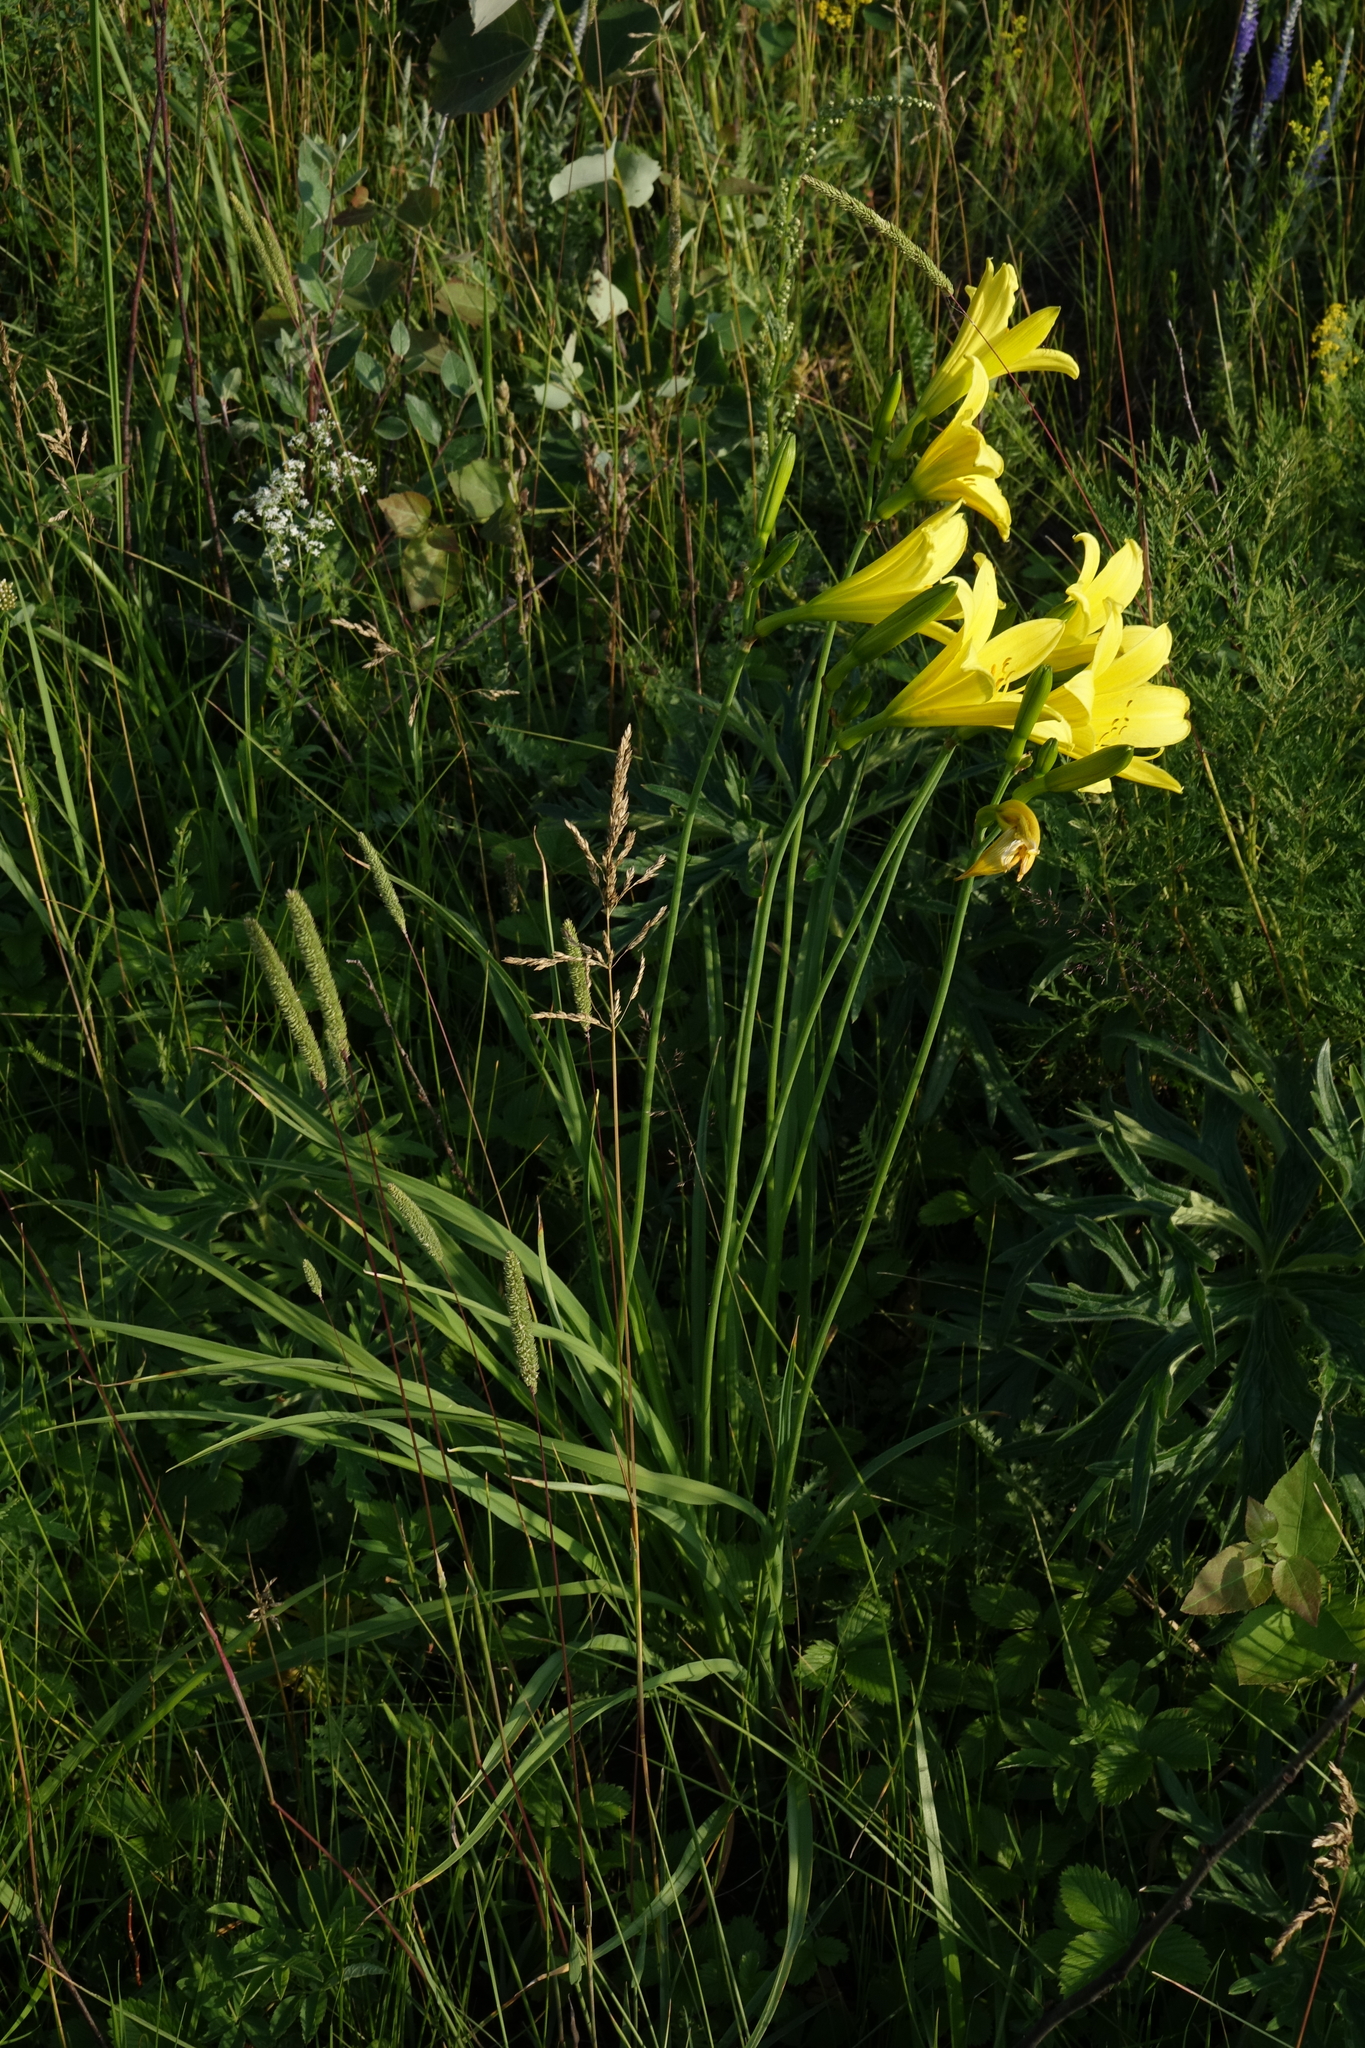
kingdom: Plantae
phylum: Tracheophyta
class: Liliopsida
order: Asparagales
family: Asphodelaceae
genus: Hemerocallis
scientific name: Hemerocallis minor
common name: Small daylily
